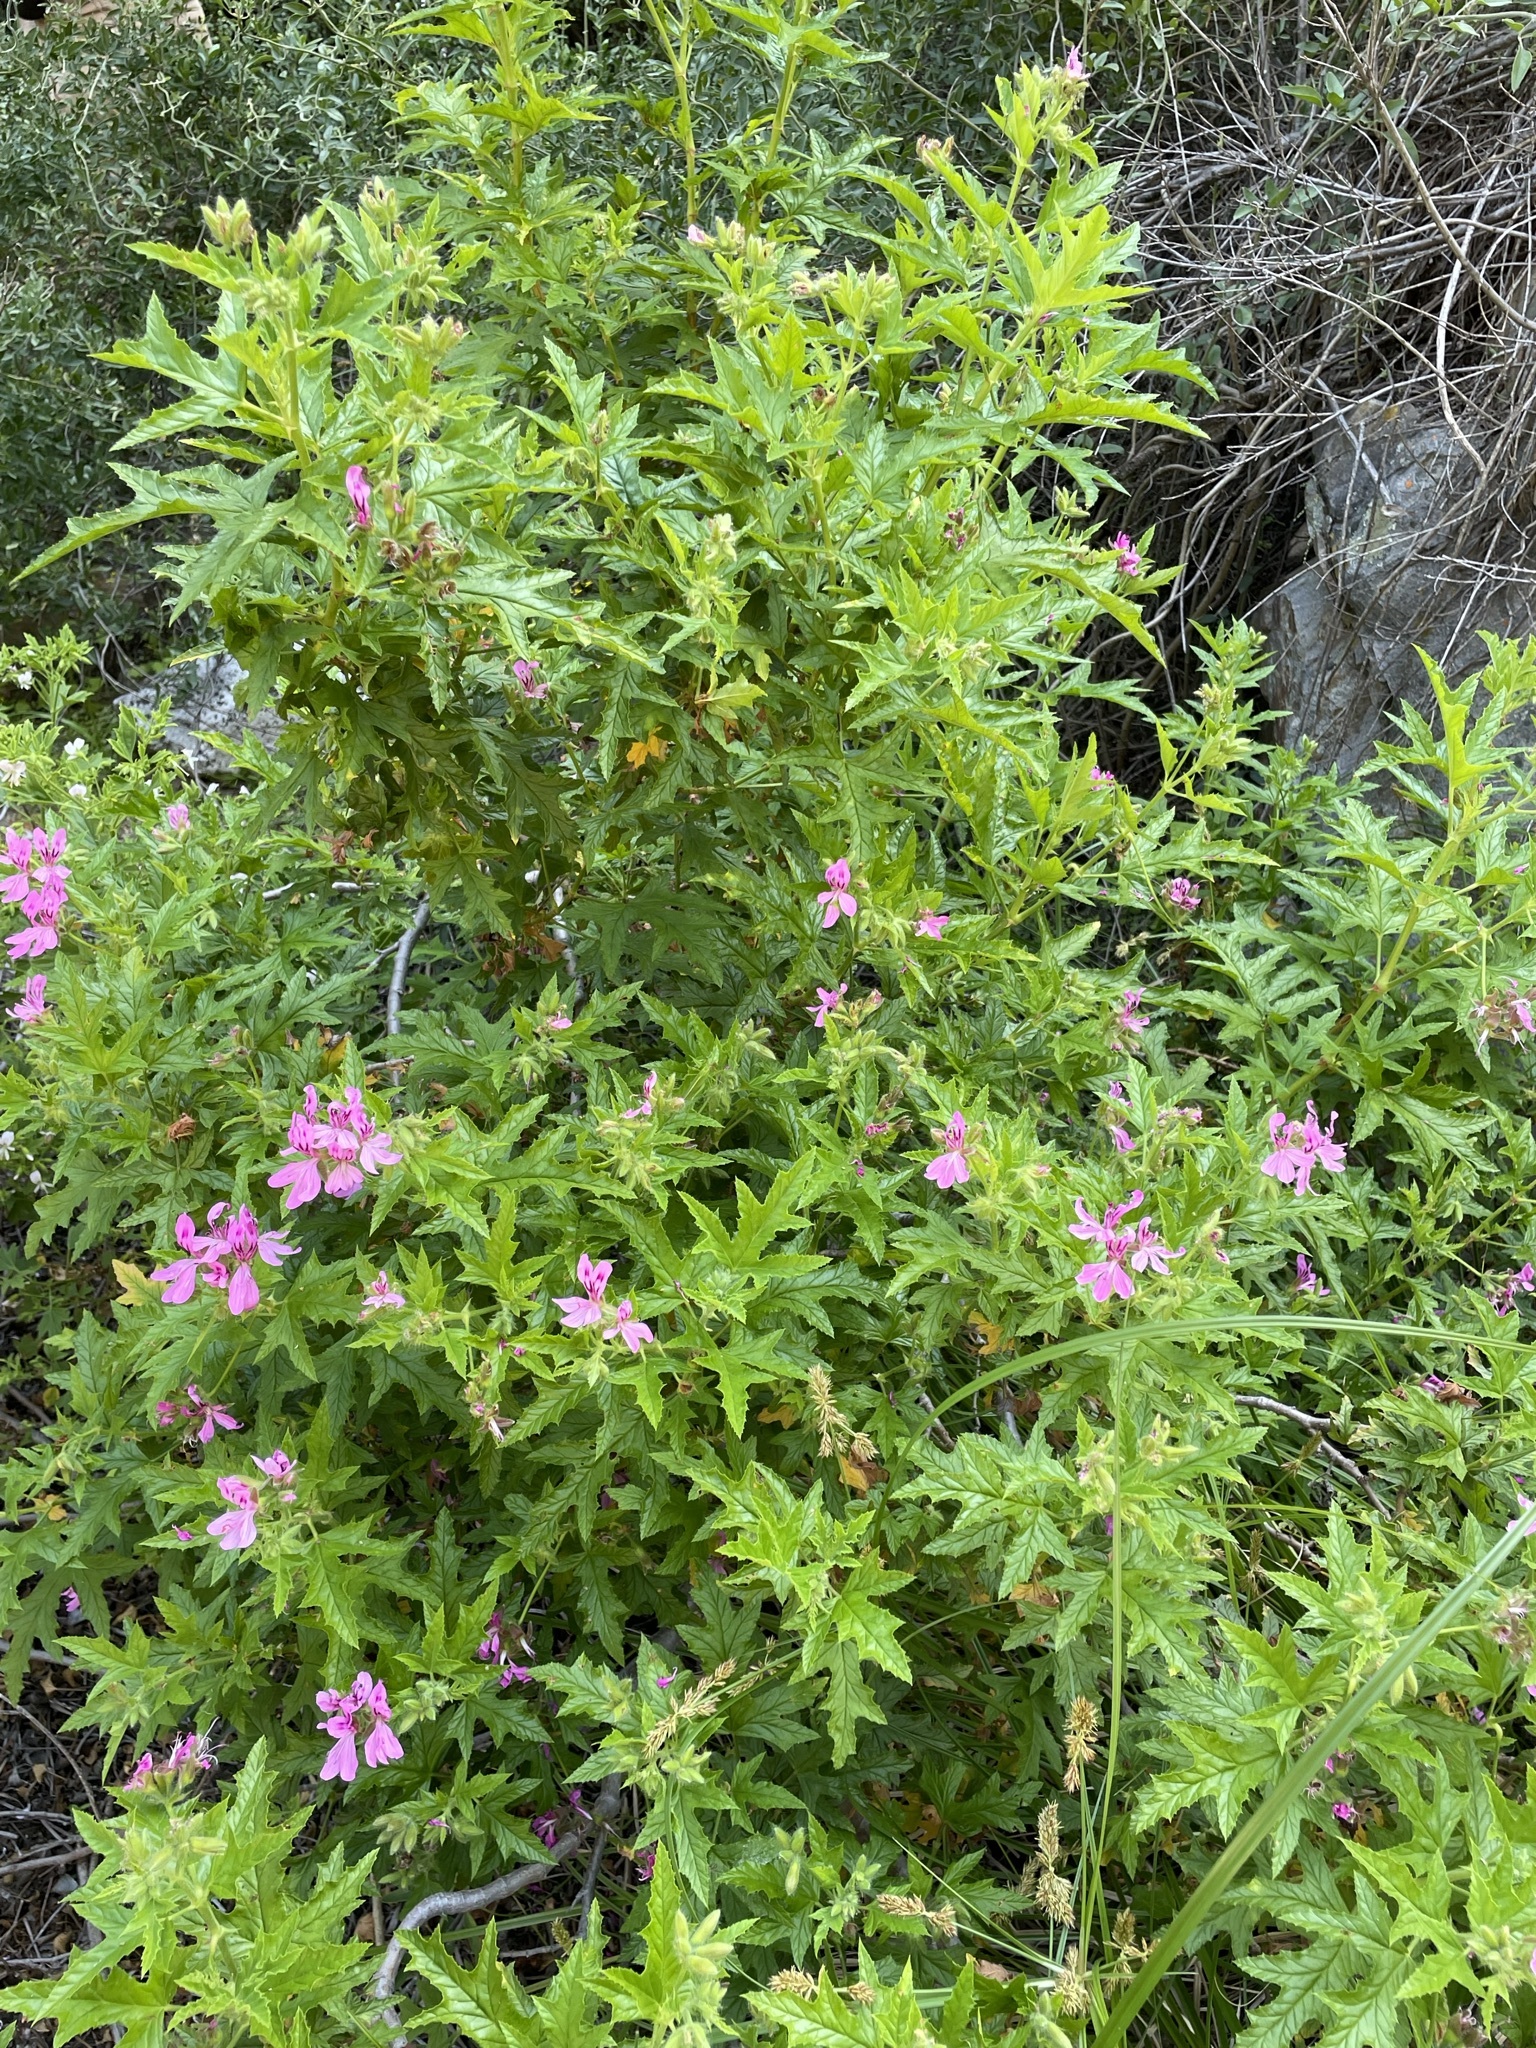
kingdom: Plantae
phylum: Tracheophyta
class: Magnoliopsida
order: Geraniales
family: Geraniaceae
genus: Pelargonium
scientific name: Pelargonium glutinosum
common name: Pheasant-foot geranium
